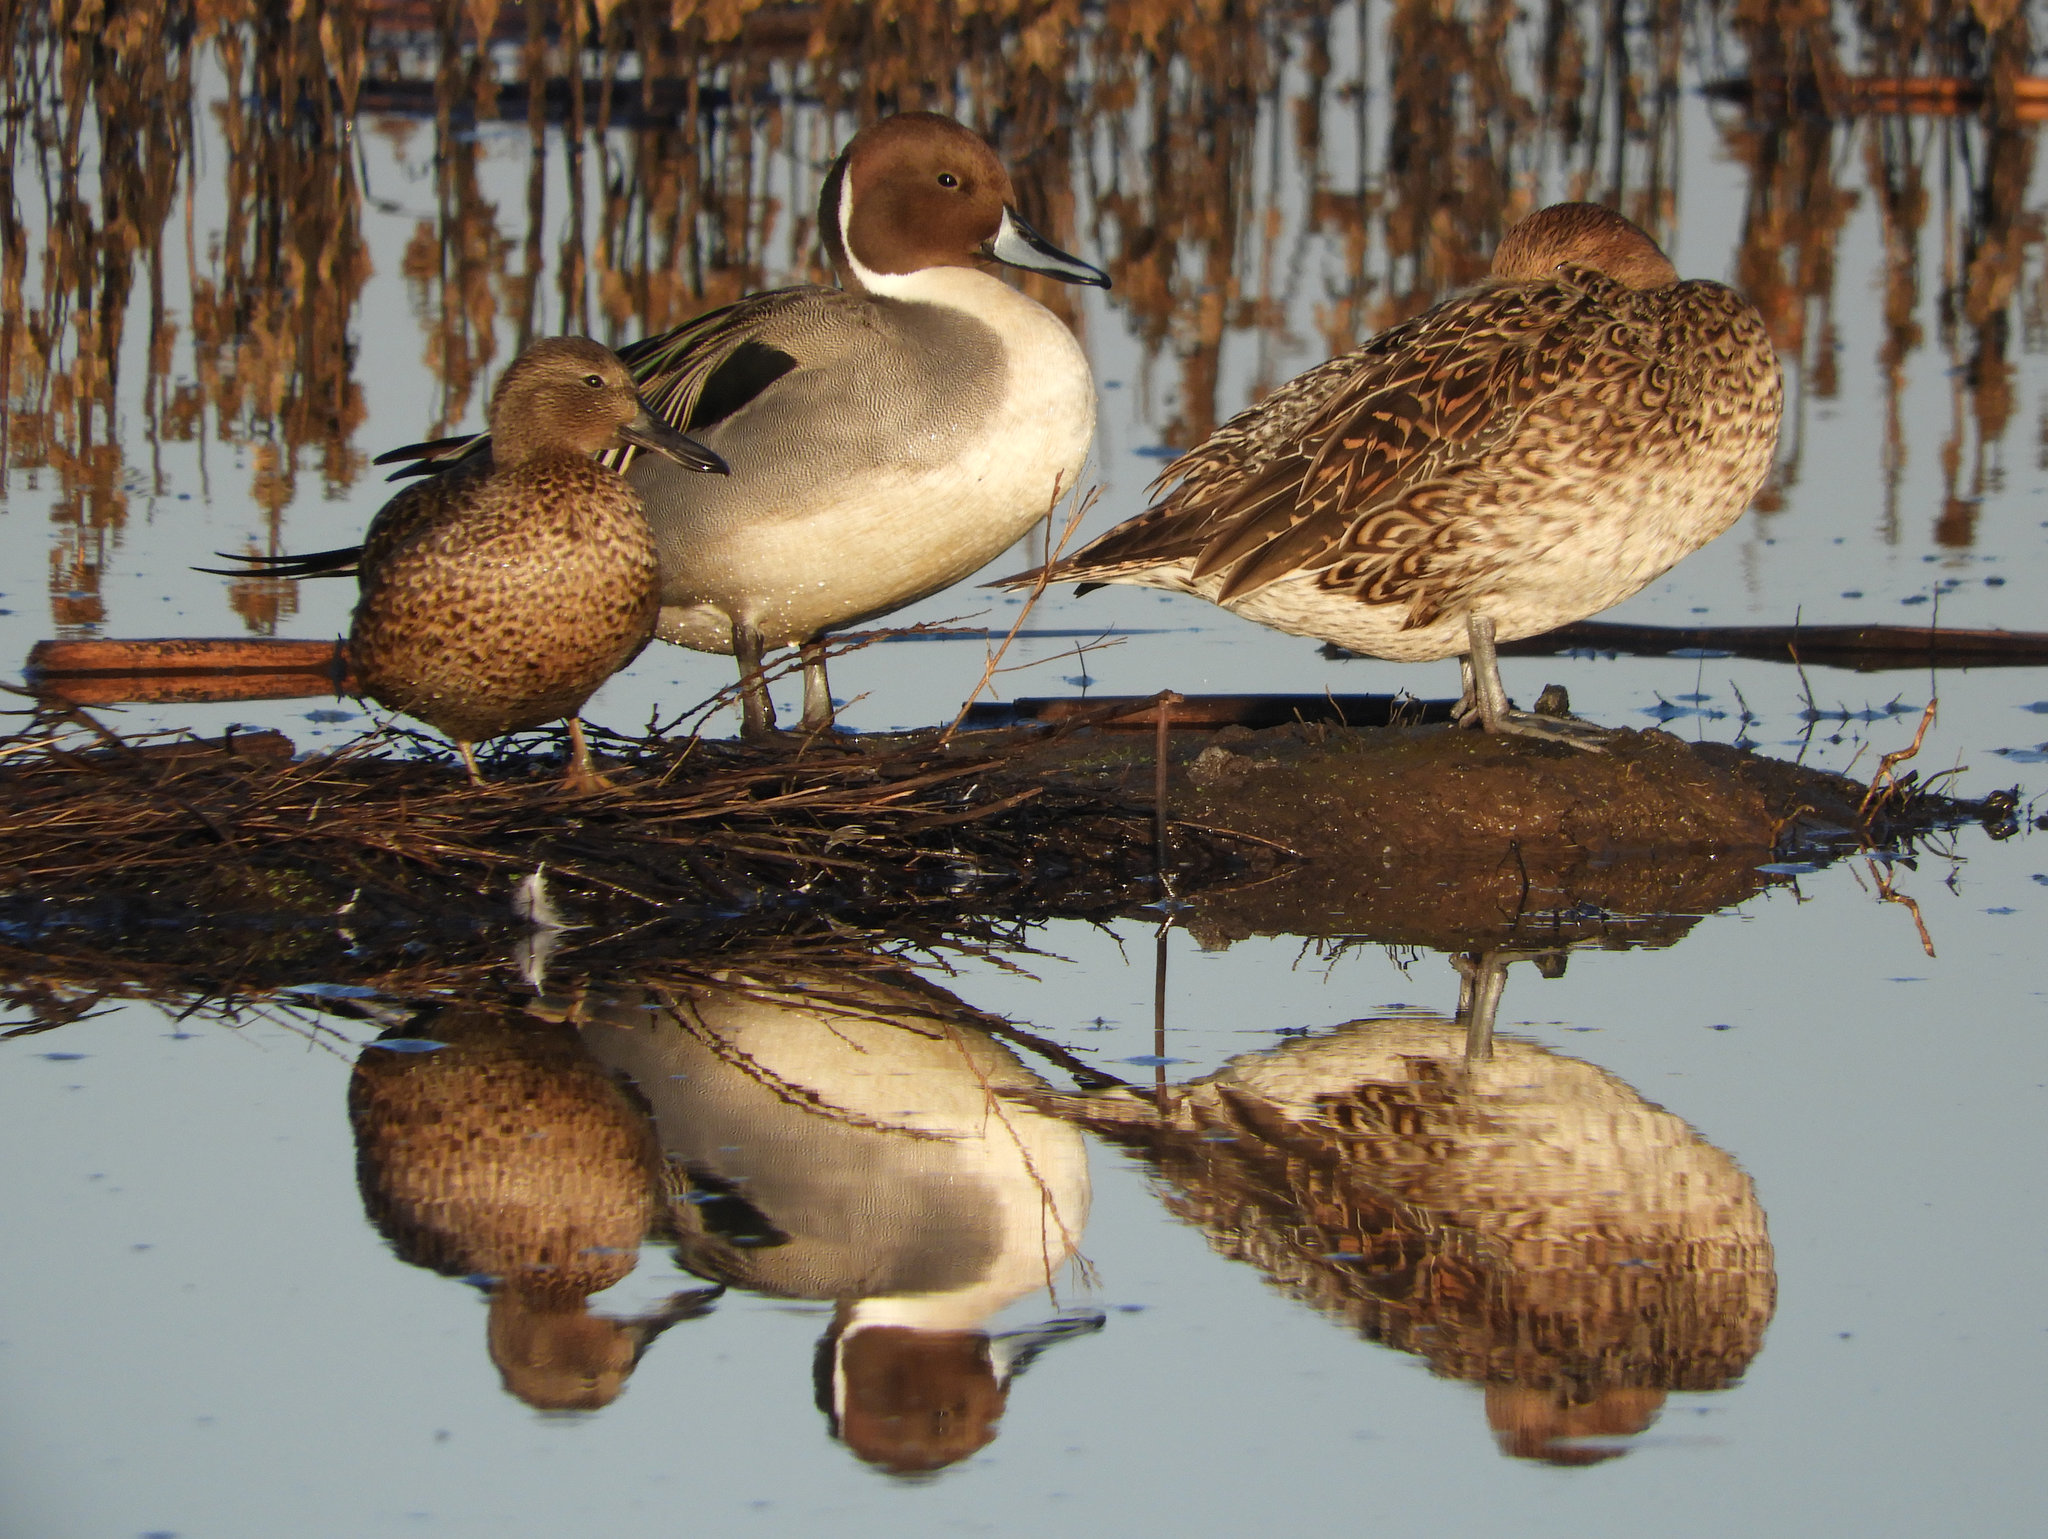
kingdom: Animalia
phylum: Chordata
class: Aves
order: Anseriformes
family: Anatidae
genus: Anas
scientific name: Anas acuta
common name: Northern pintail
